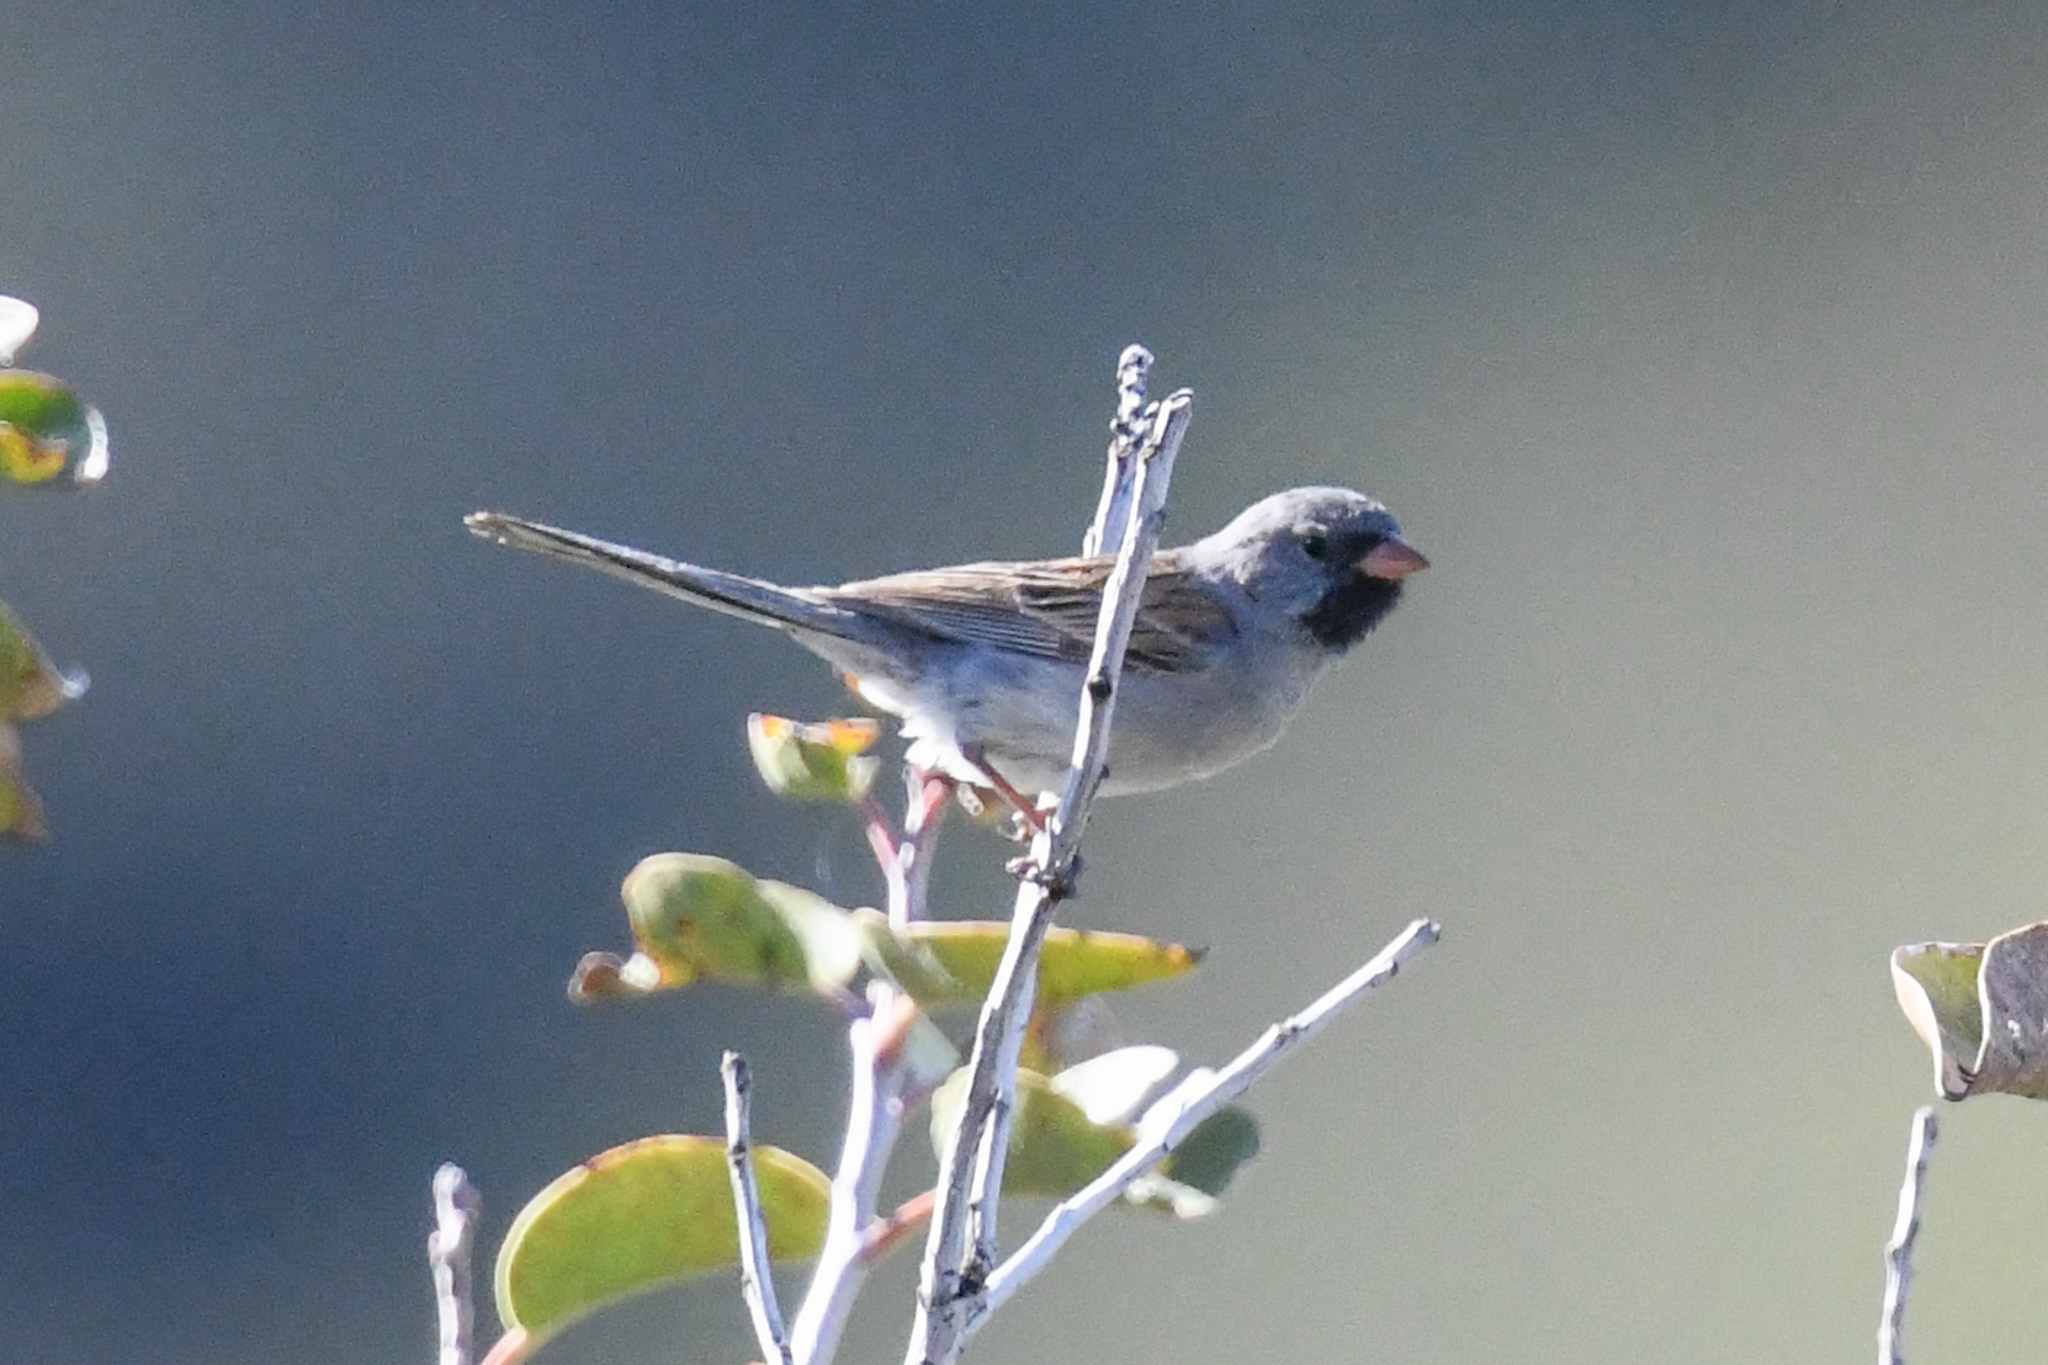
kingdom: Animalia
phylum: Chordata
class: Aves
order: Passeriformes
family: Passerellidae
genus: Spizella
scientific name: Spizella atrogularis
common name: Black-chinned sparrow
